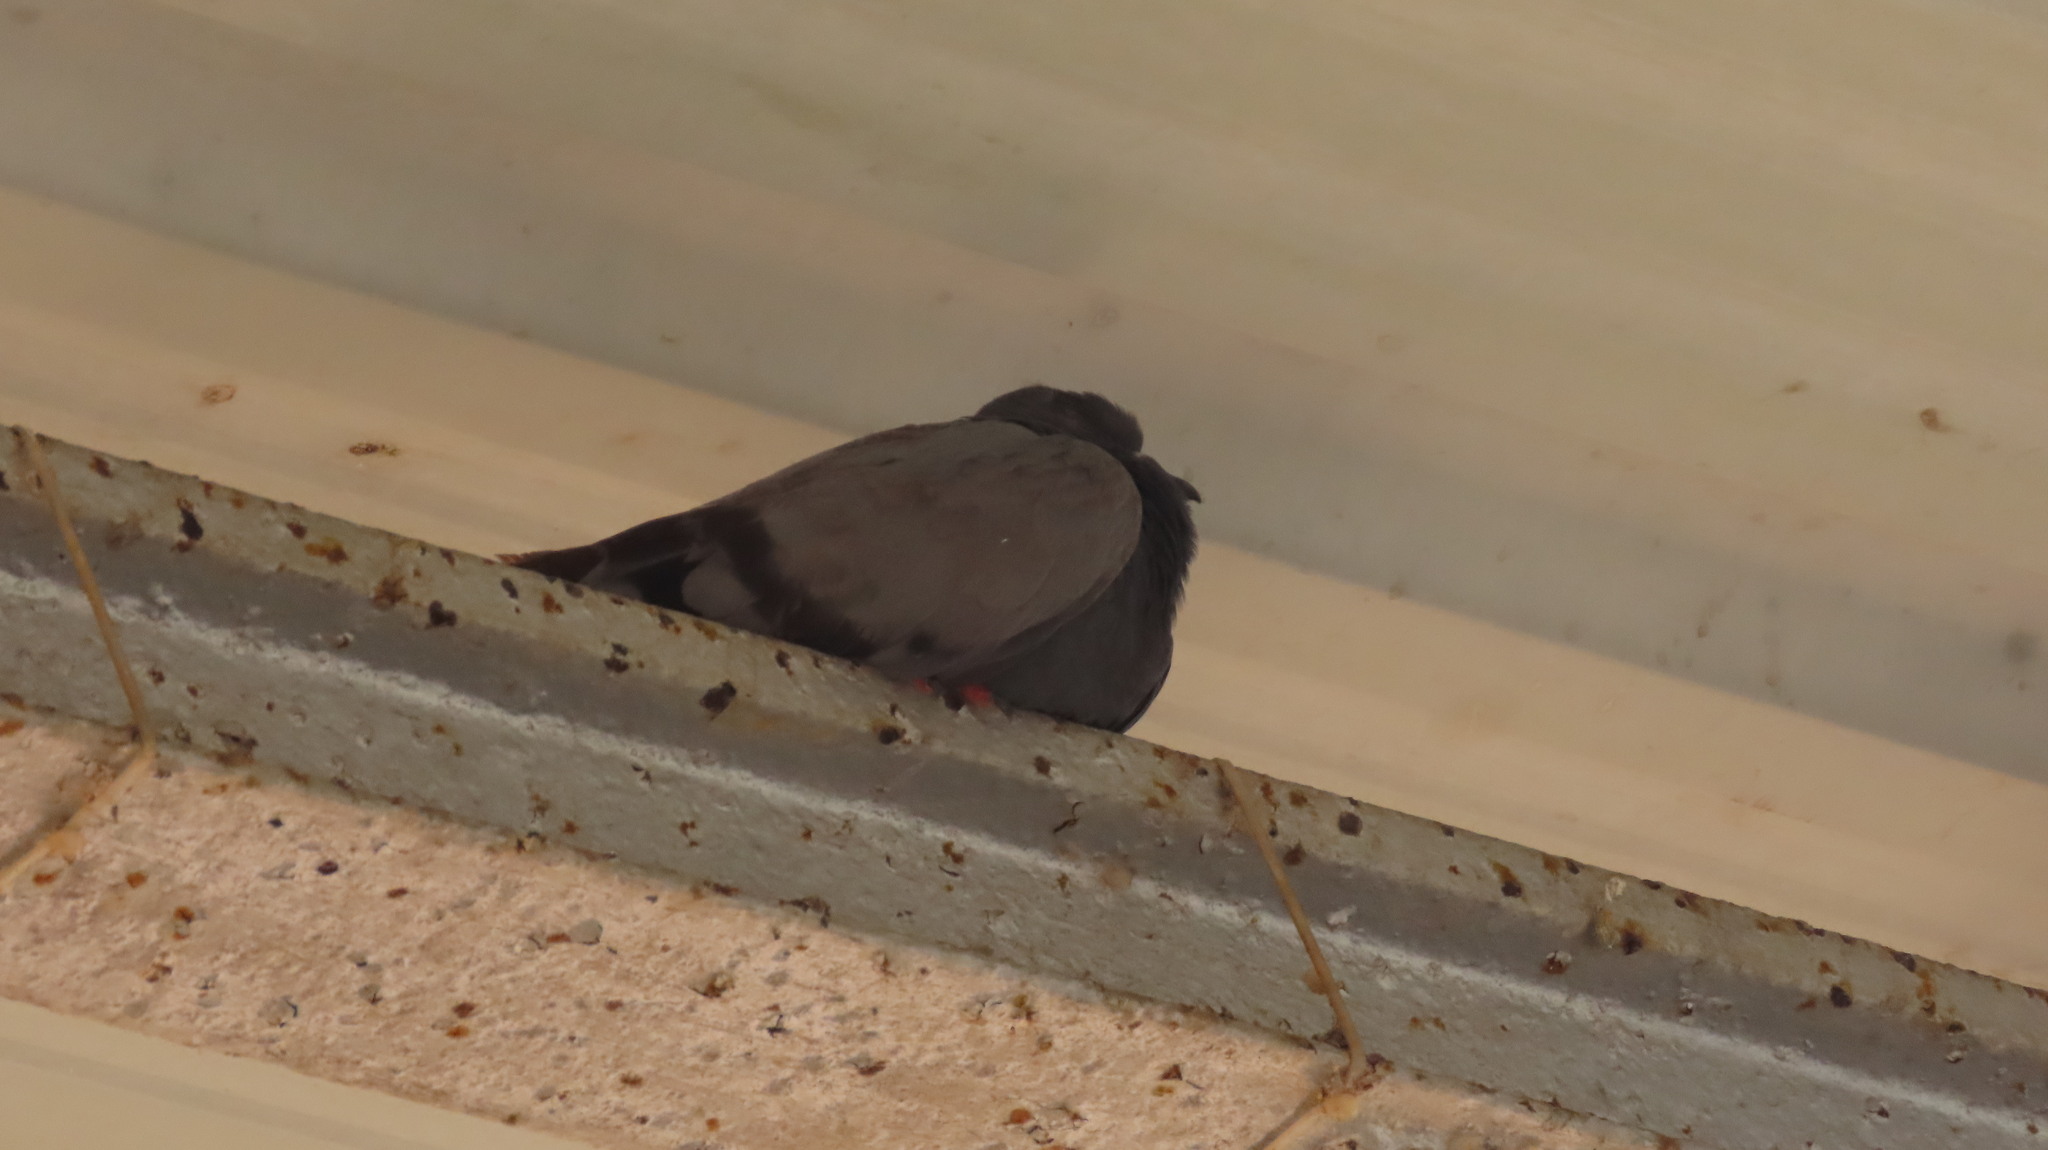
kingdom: Animalia
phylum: Chordata
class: Aves
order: Columbiformes
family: Columbidae
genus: Columba
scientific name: Columba livia
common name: Rock pigeon
